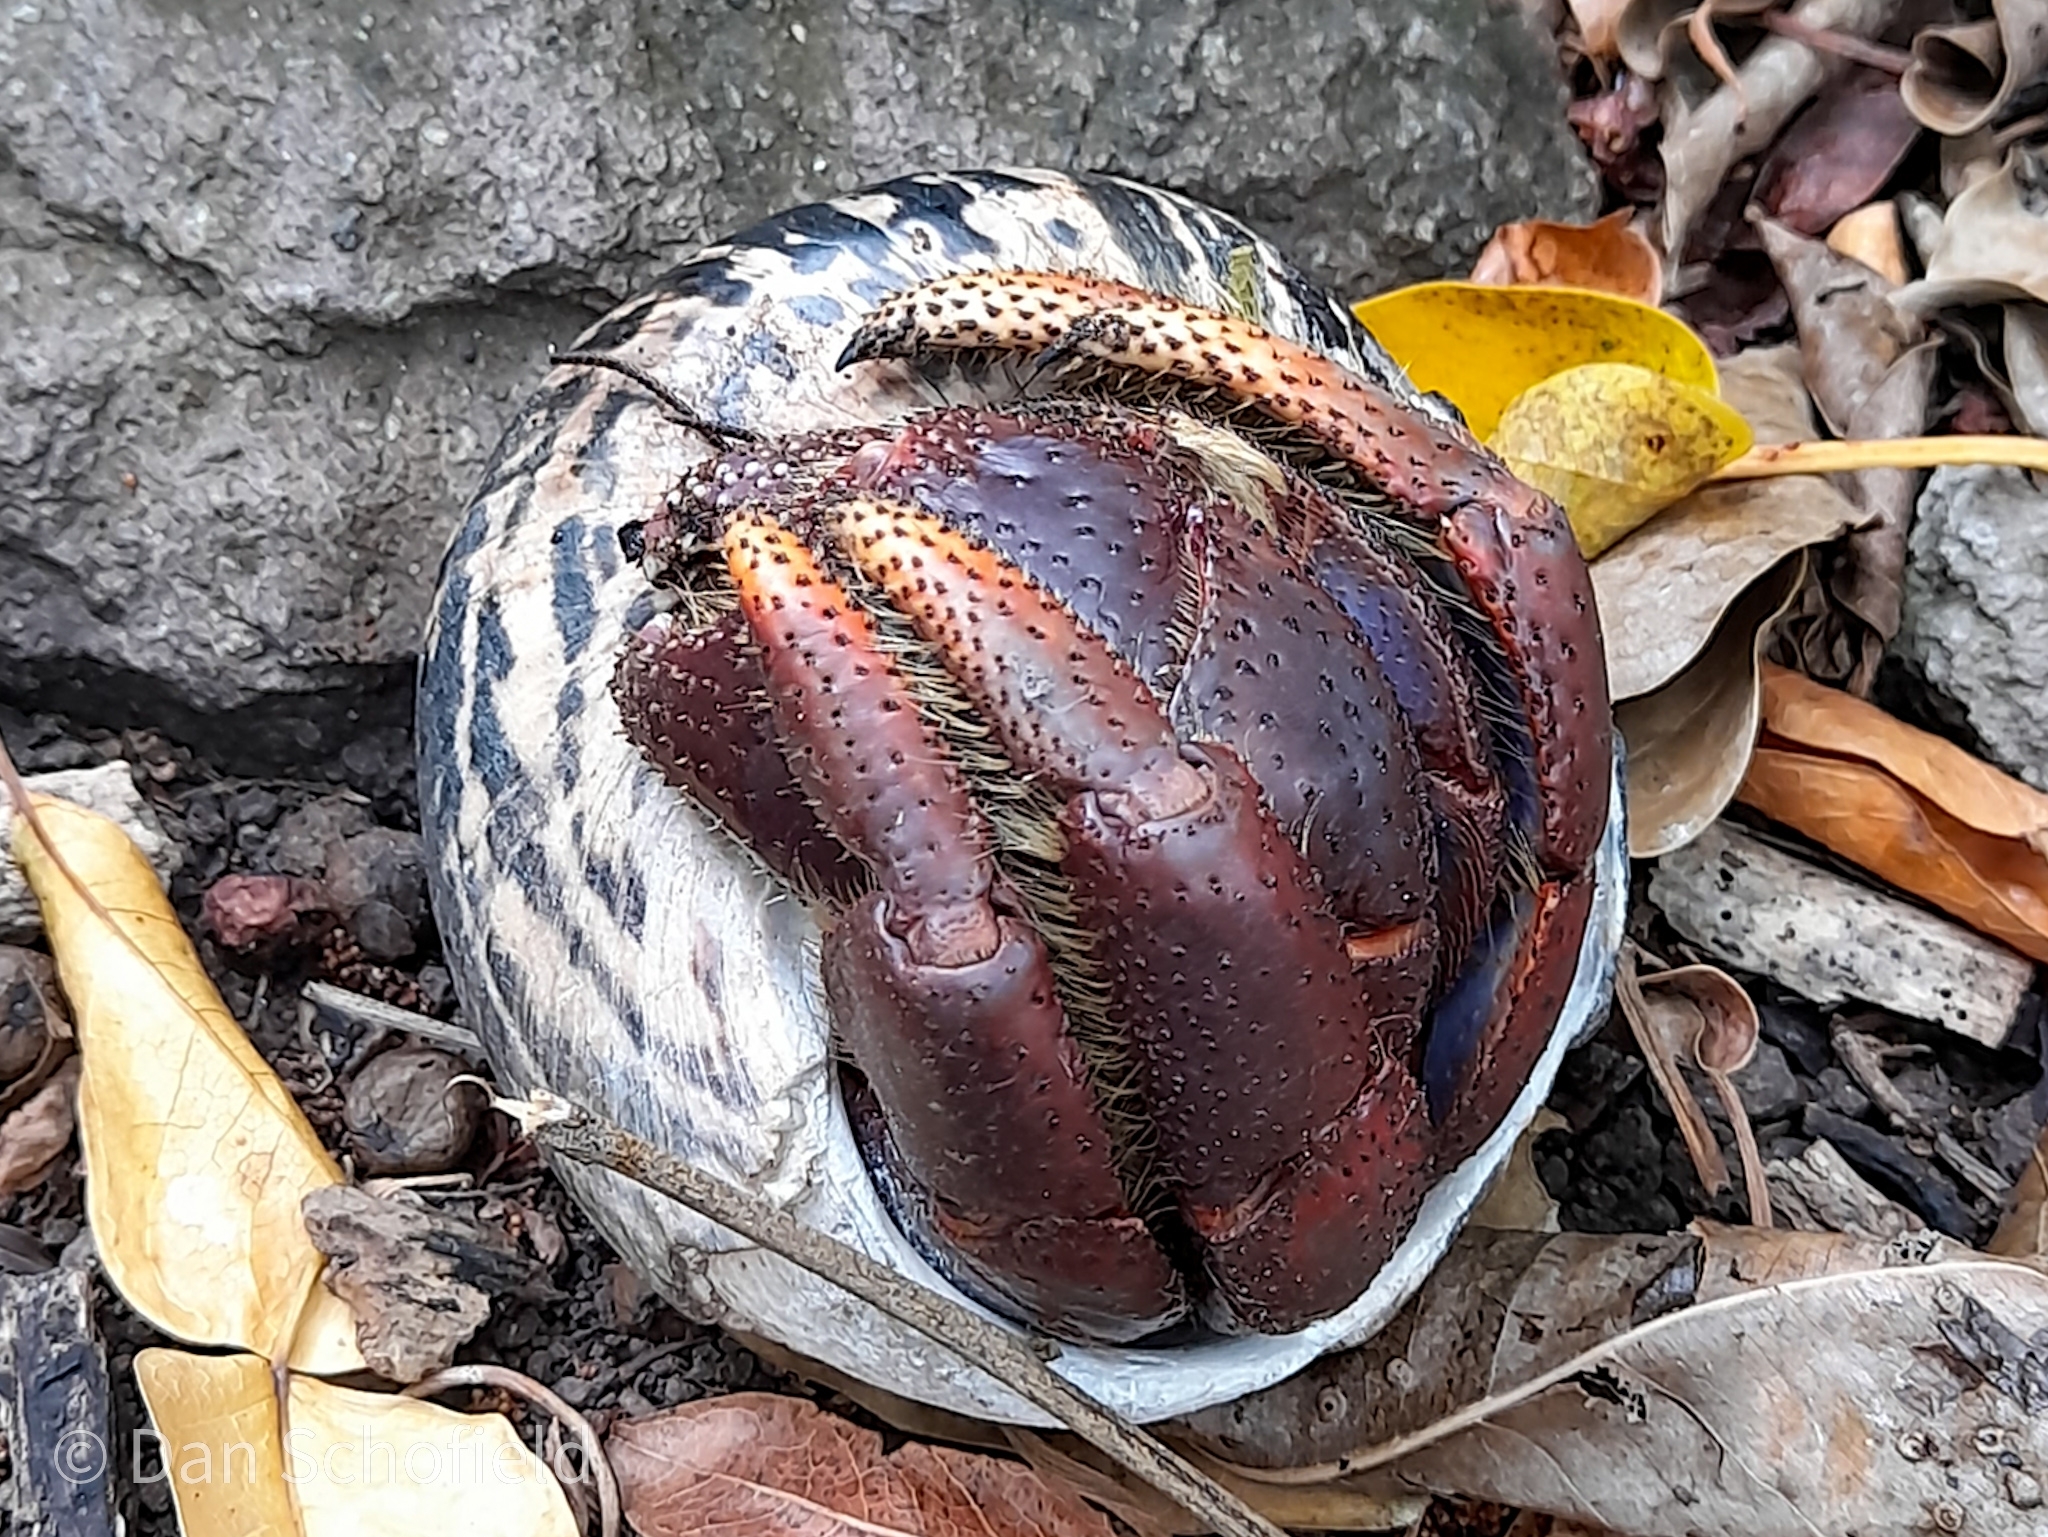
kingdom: Animalia
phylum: Arthropoda
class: Malacostraca
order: Decapoda
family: Coenobitidae
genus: Coenobita
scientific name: Coenobita clypeatus
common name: Caribbean hermit crab
